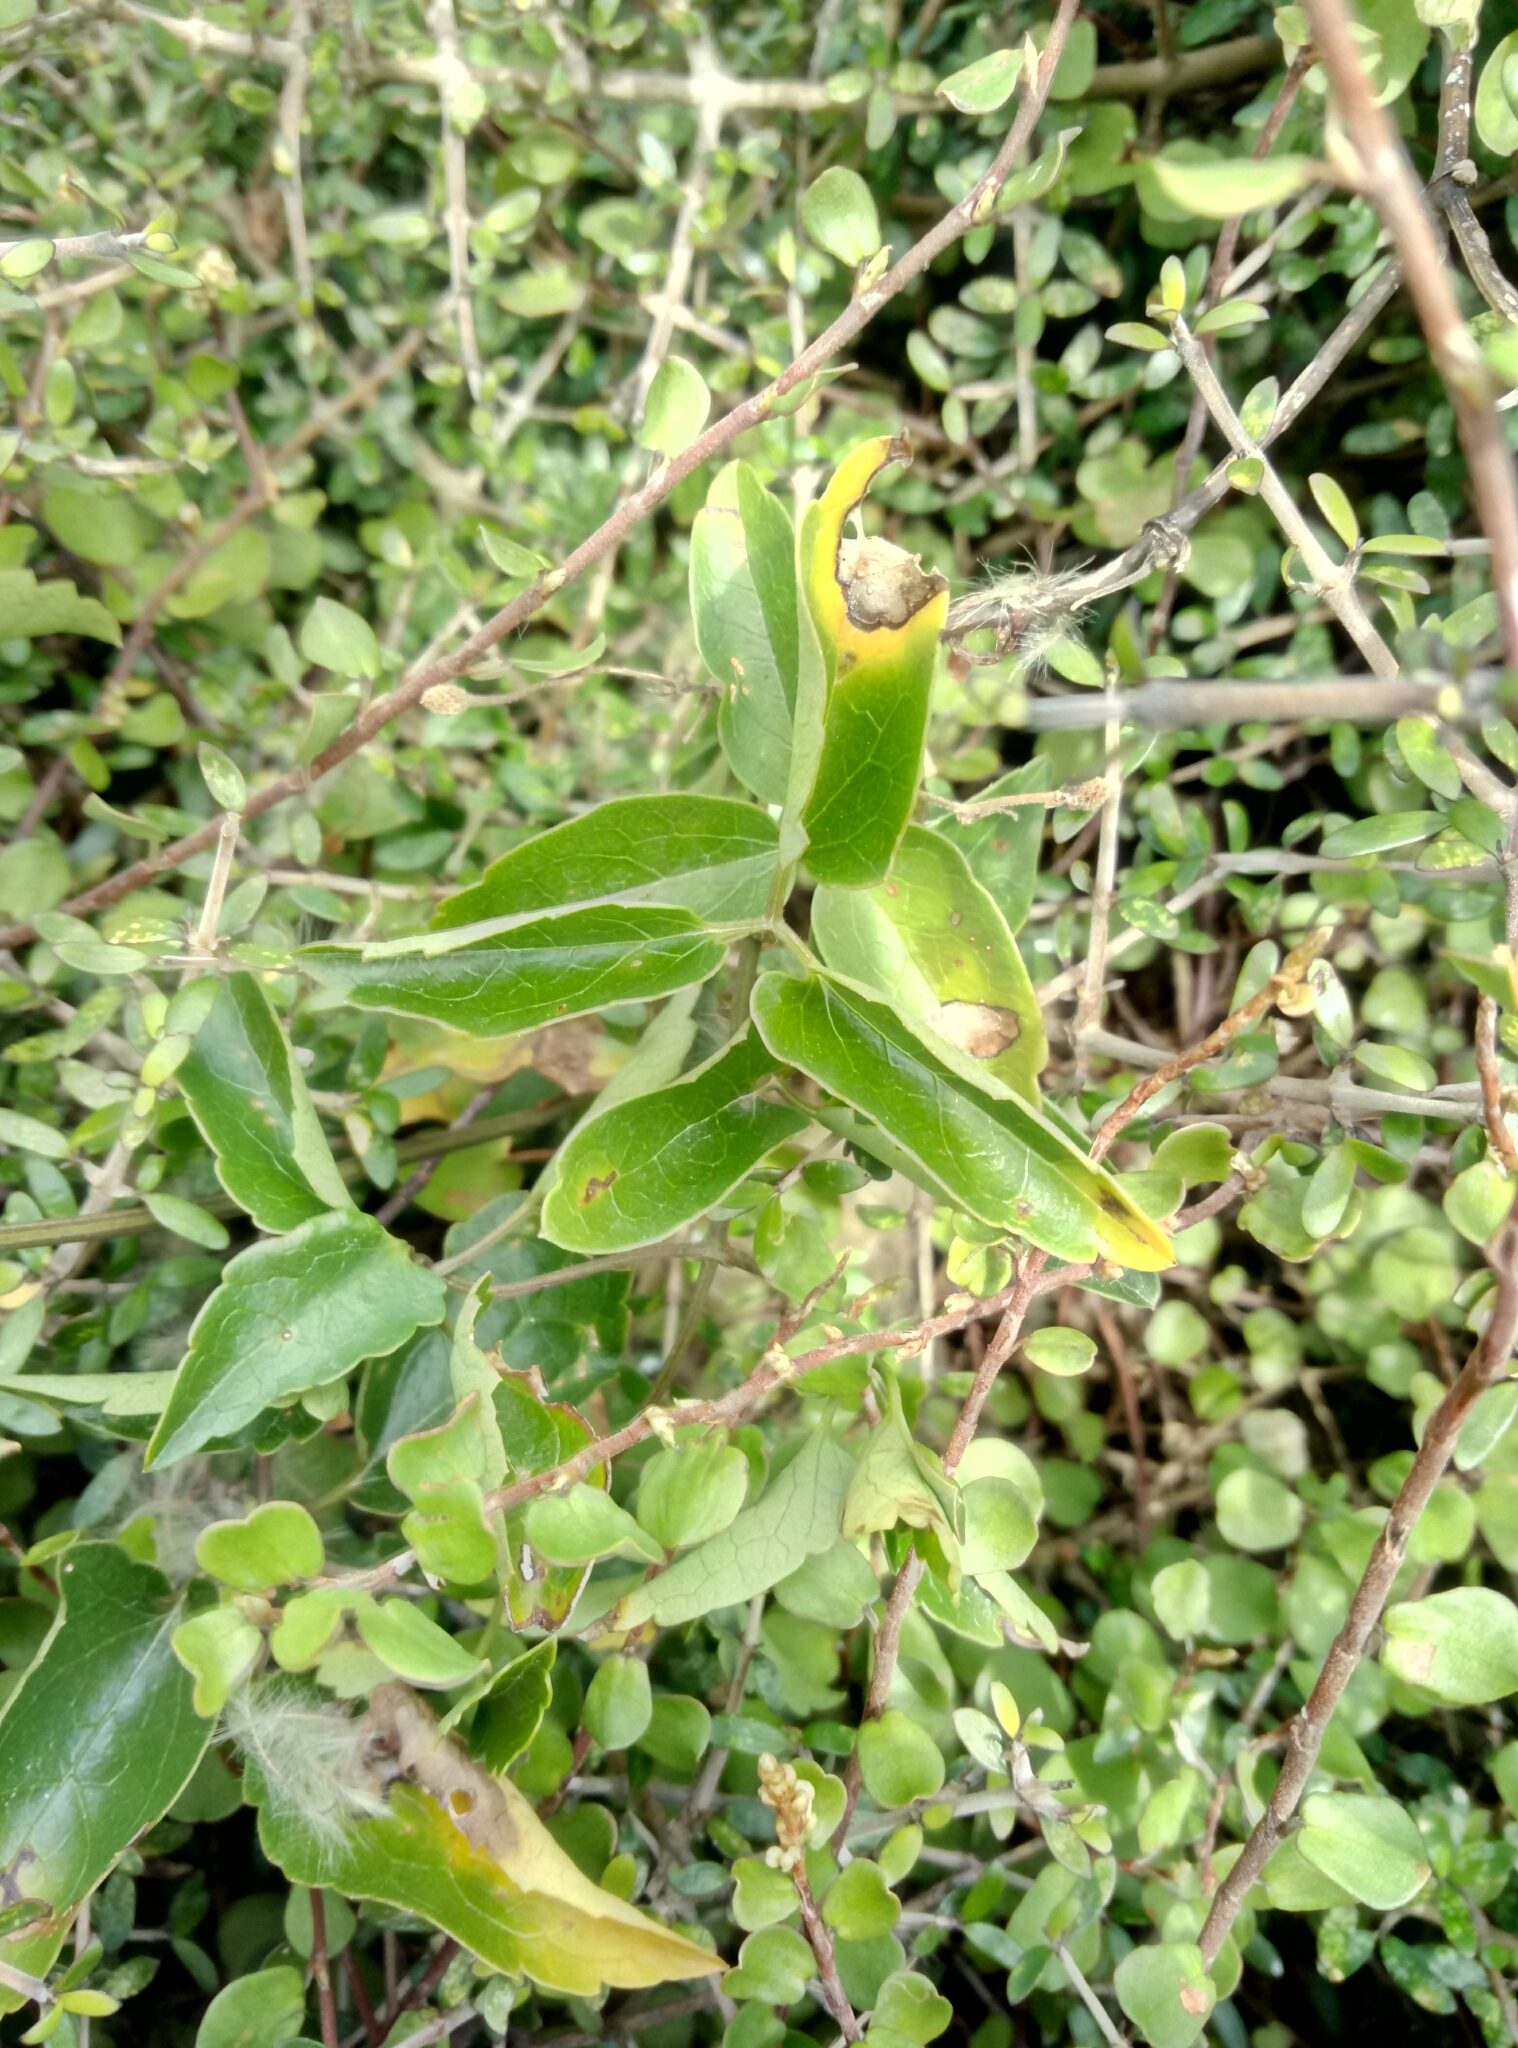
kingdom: Plantae
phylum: Tracheophyta
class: Magnoliopsida
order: Ranunculales
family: Ranunculaceae
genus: Clematis
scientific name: Clematis forsteri
